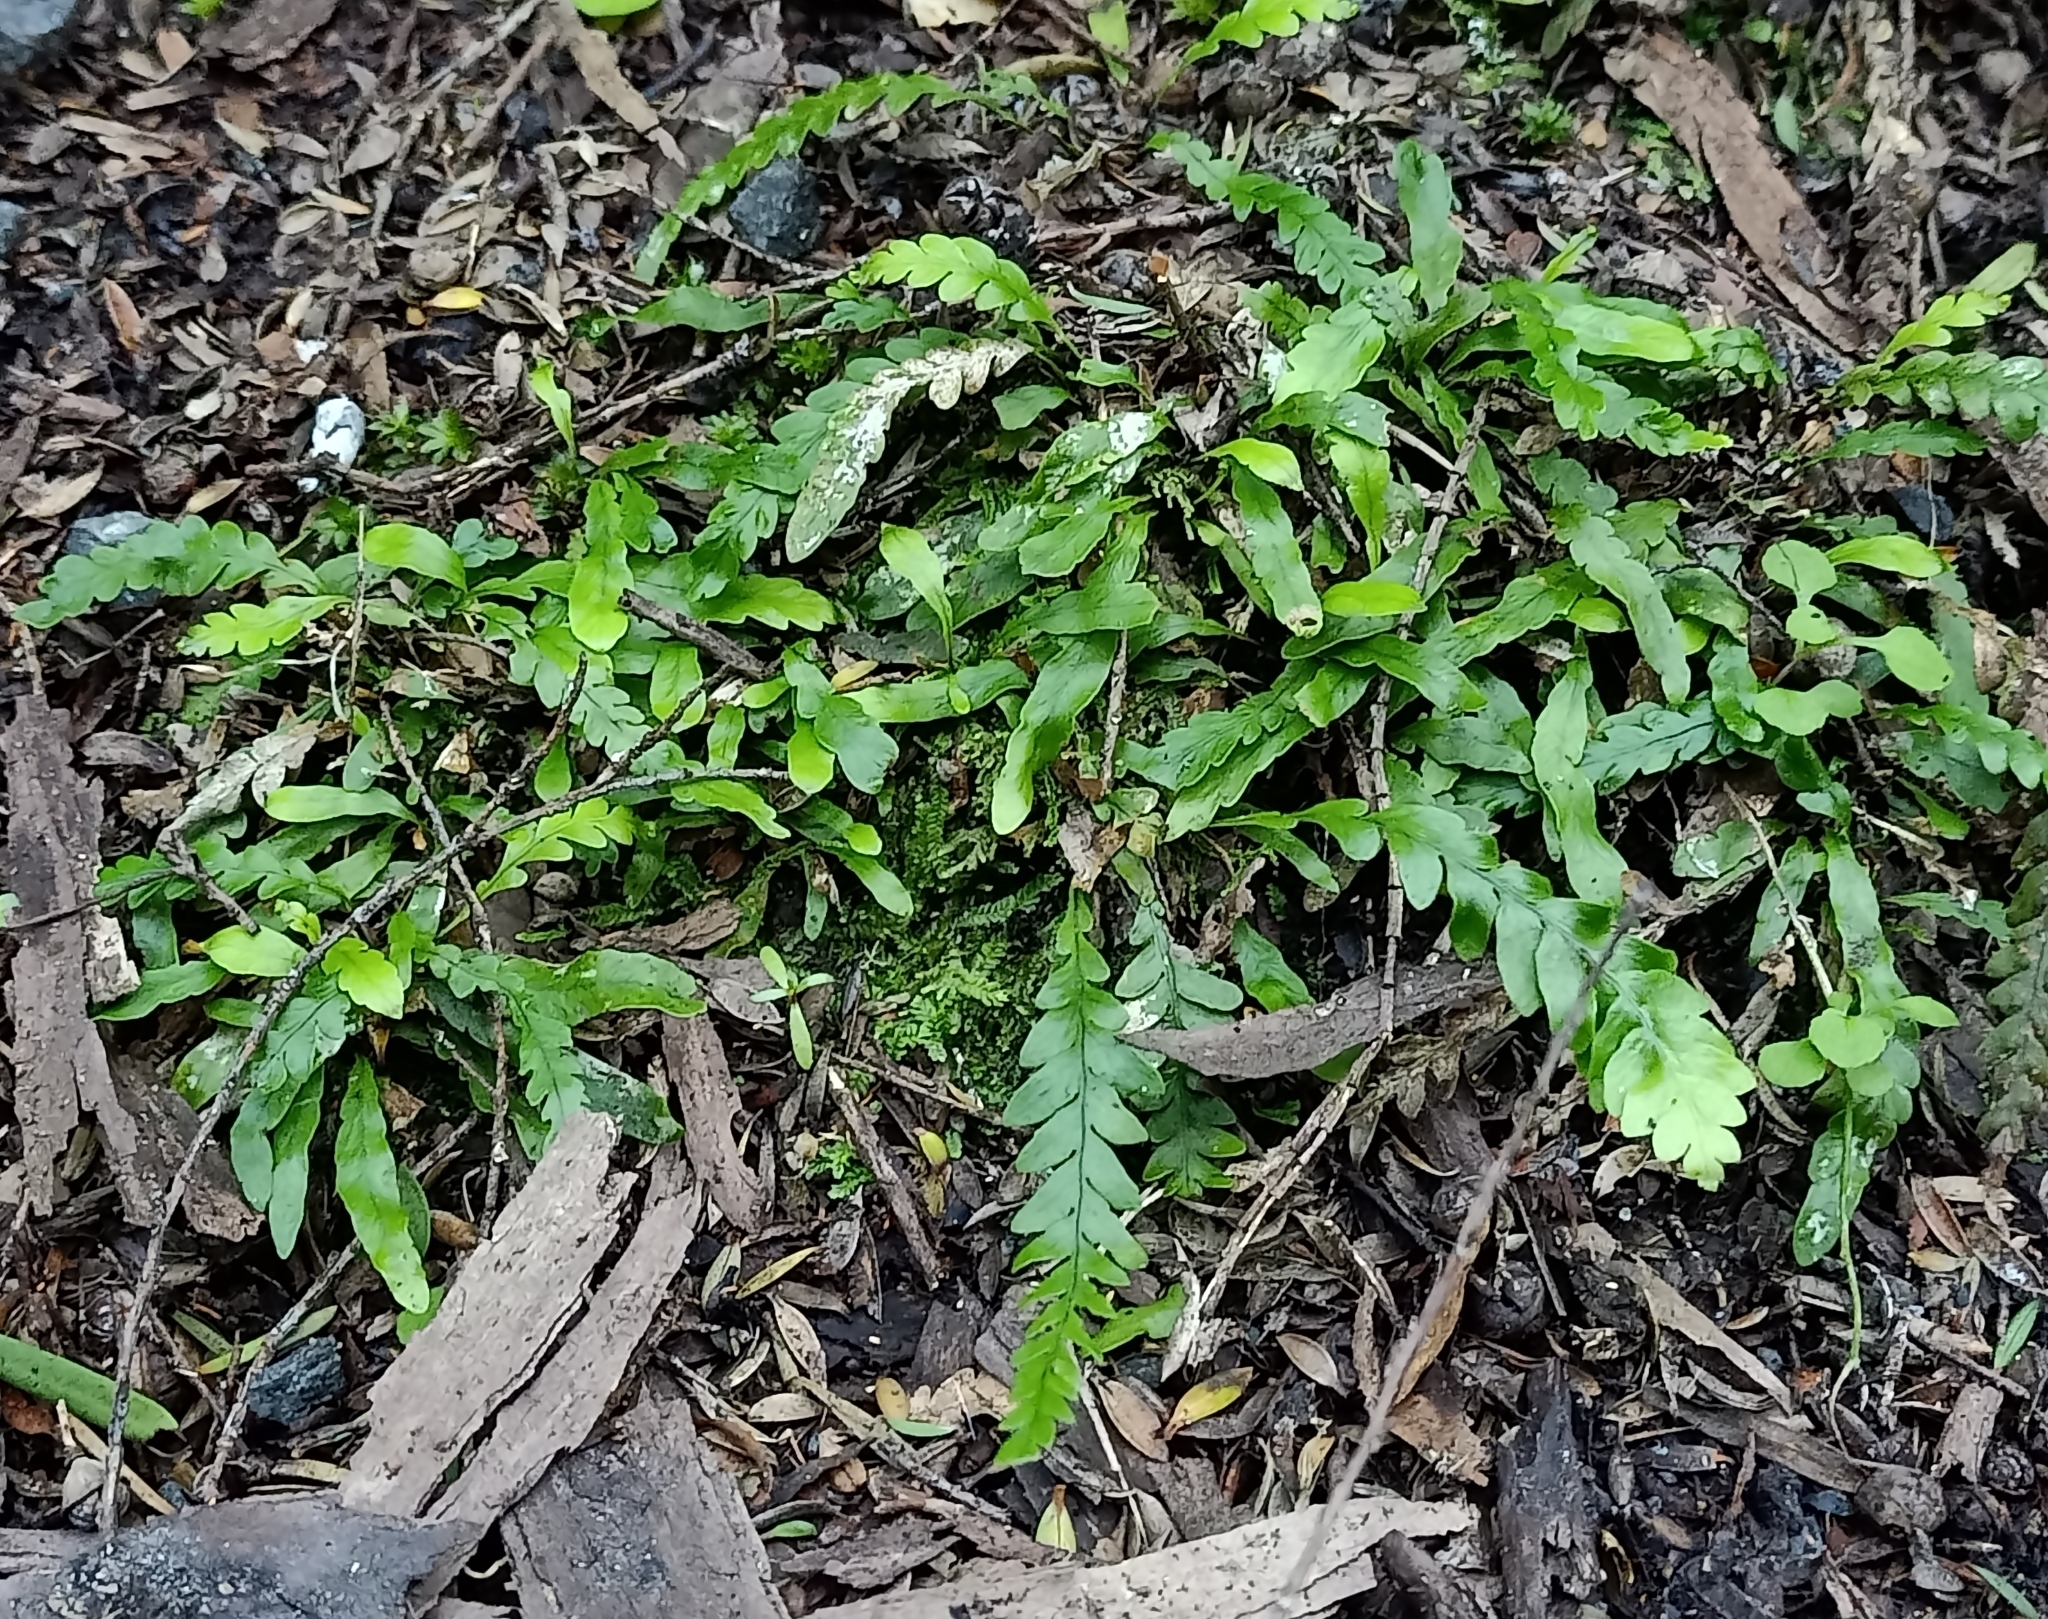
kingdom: Plantae
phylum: Tracheophyta
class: Polypodiopsida
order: Polypodiales
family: Polypodiaceae
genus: Notogrammitis
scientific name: Notogrammitis heterophylla
